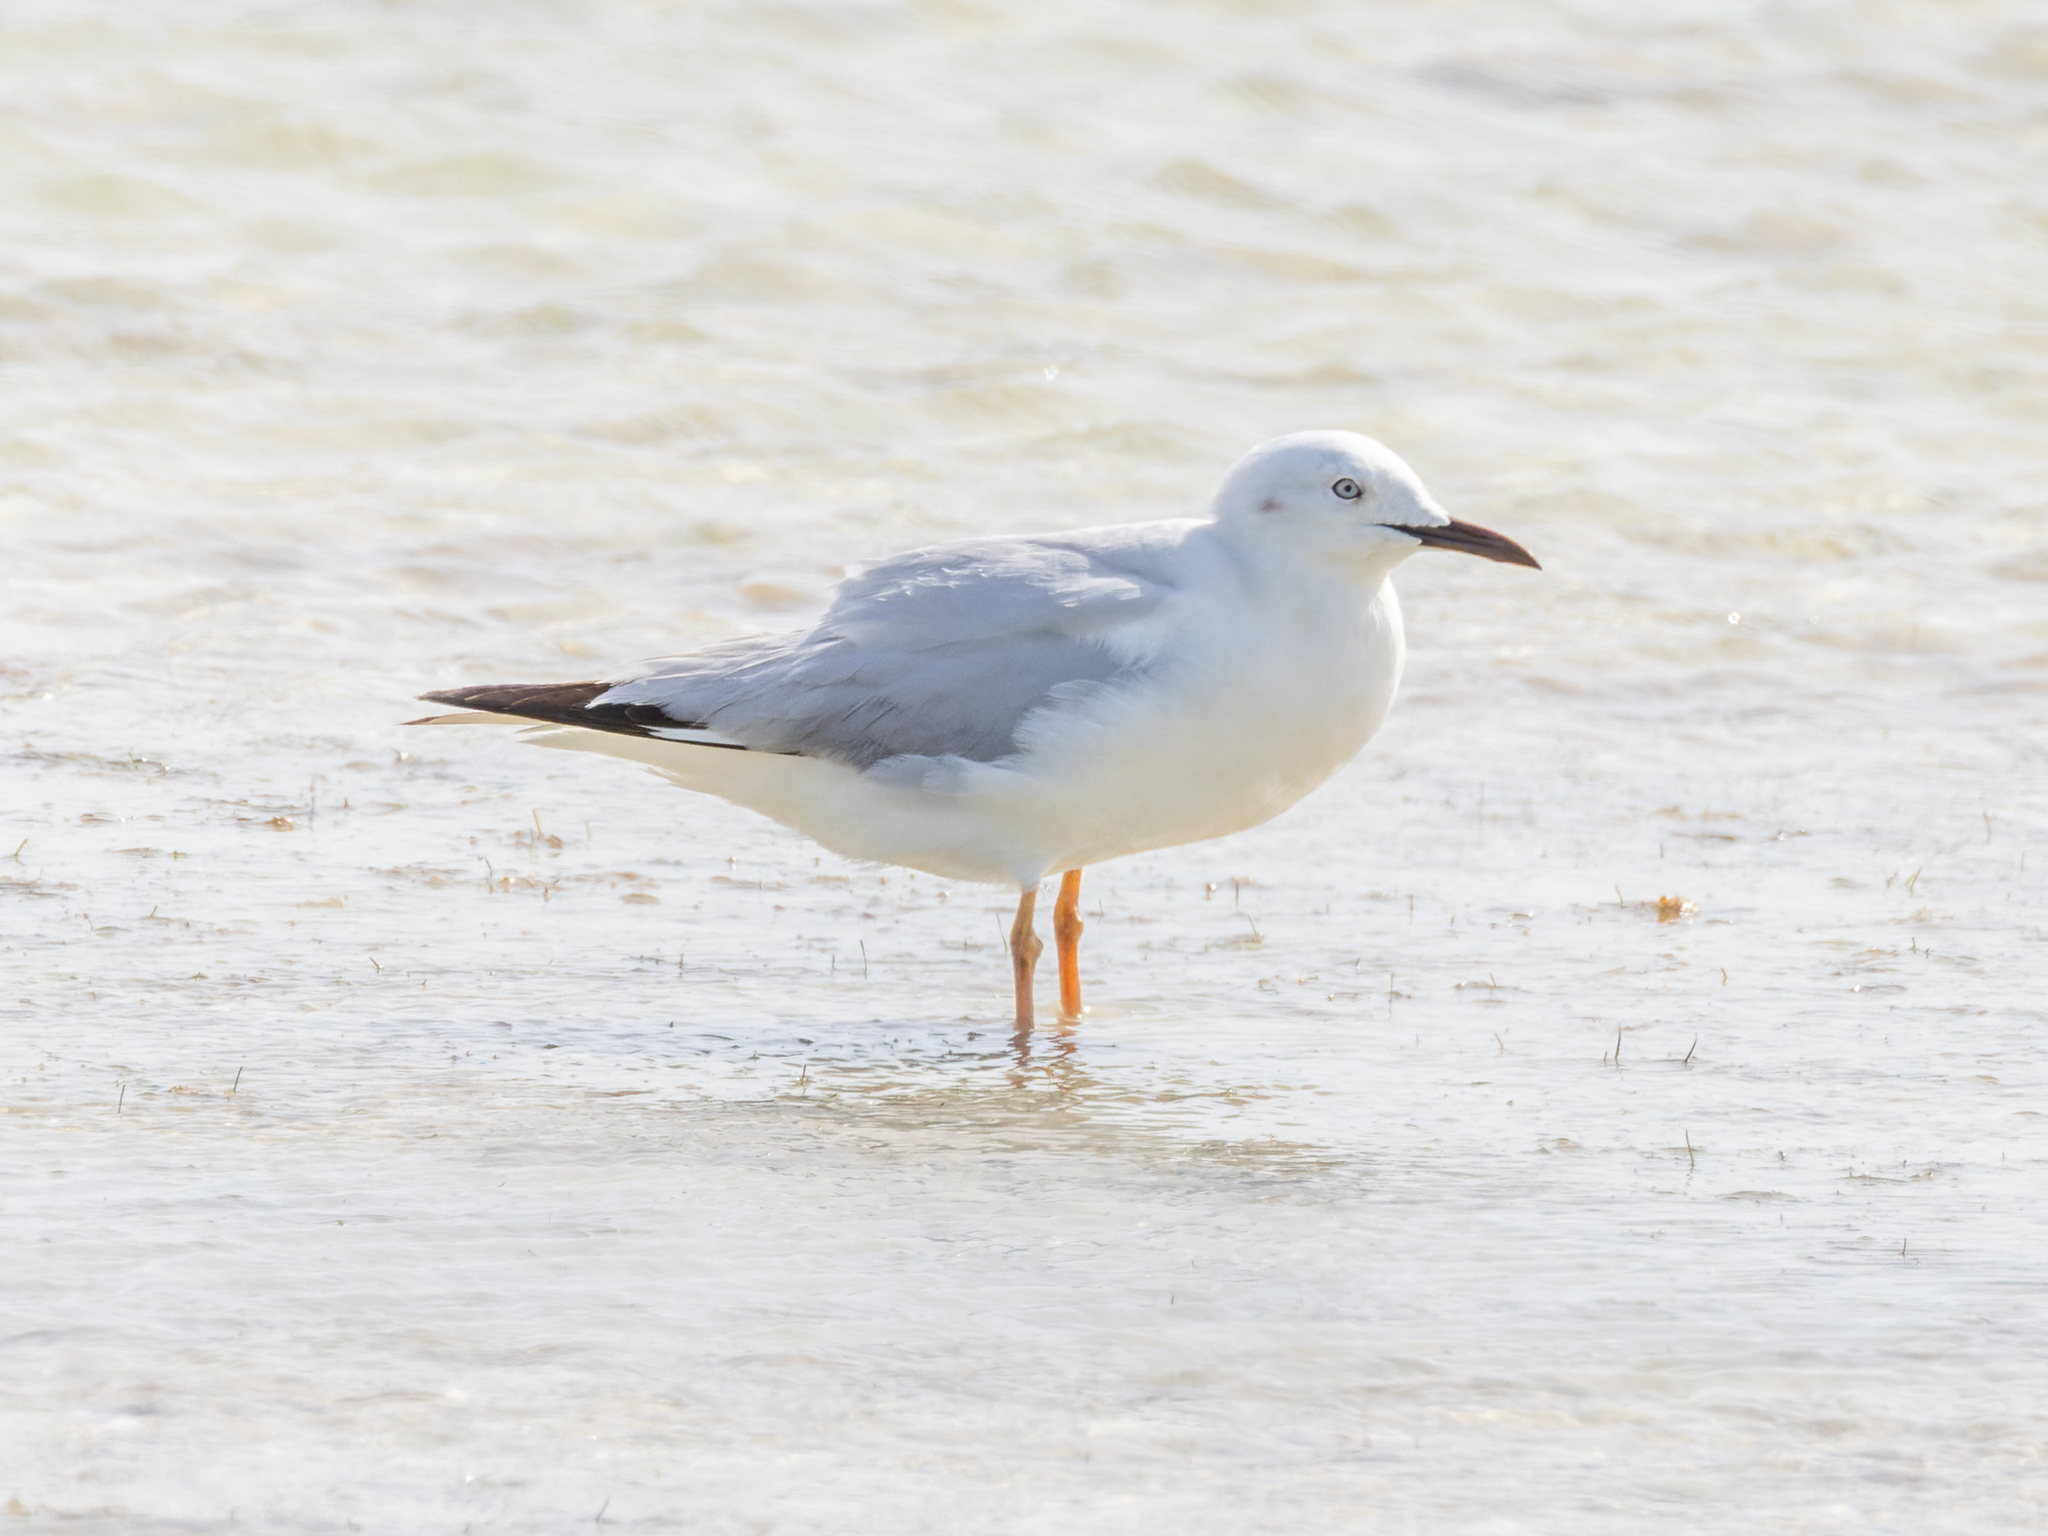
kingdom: Animalia
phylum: Chordata
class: Aves
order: Charadriiformes
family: Laridae
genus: Chroicocephalus
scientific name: Chroicocephalus genei
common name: Slender-billed gull
